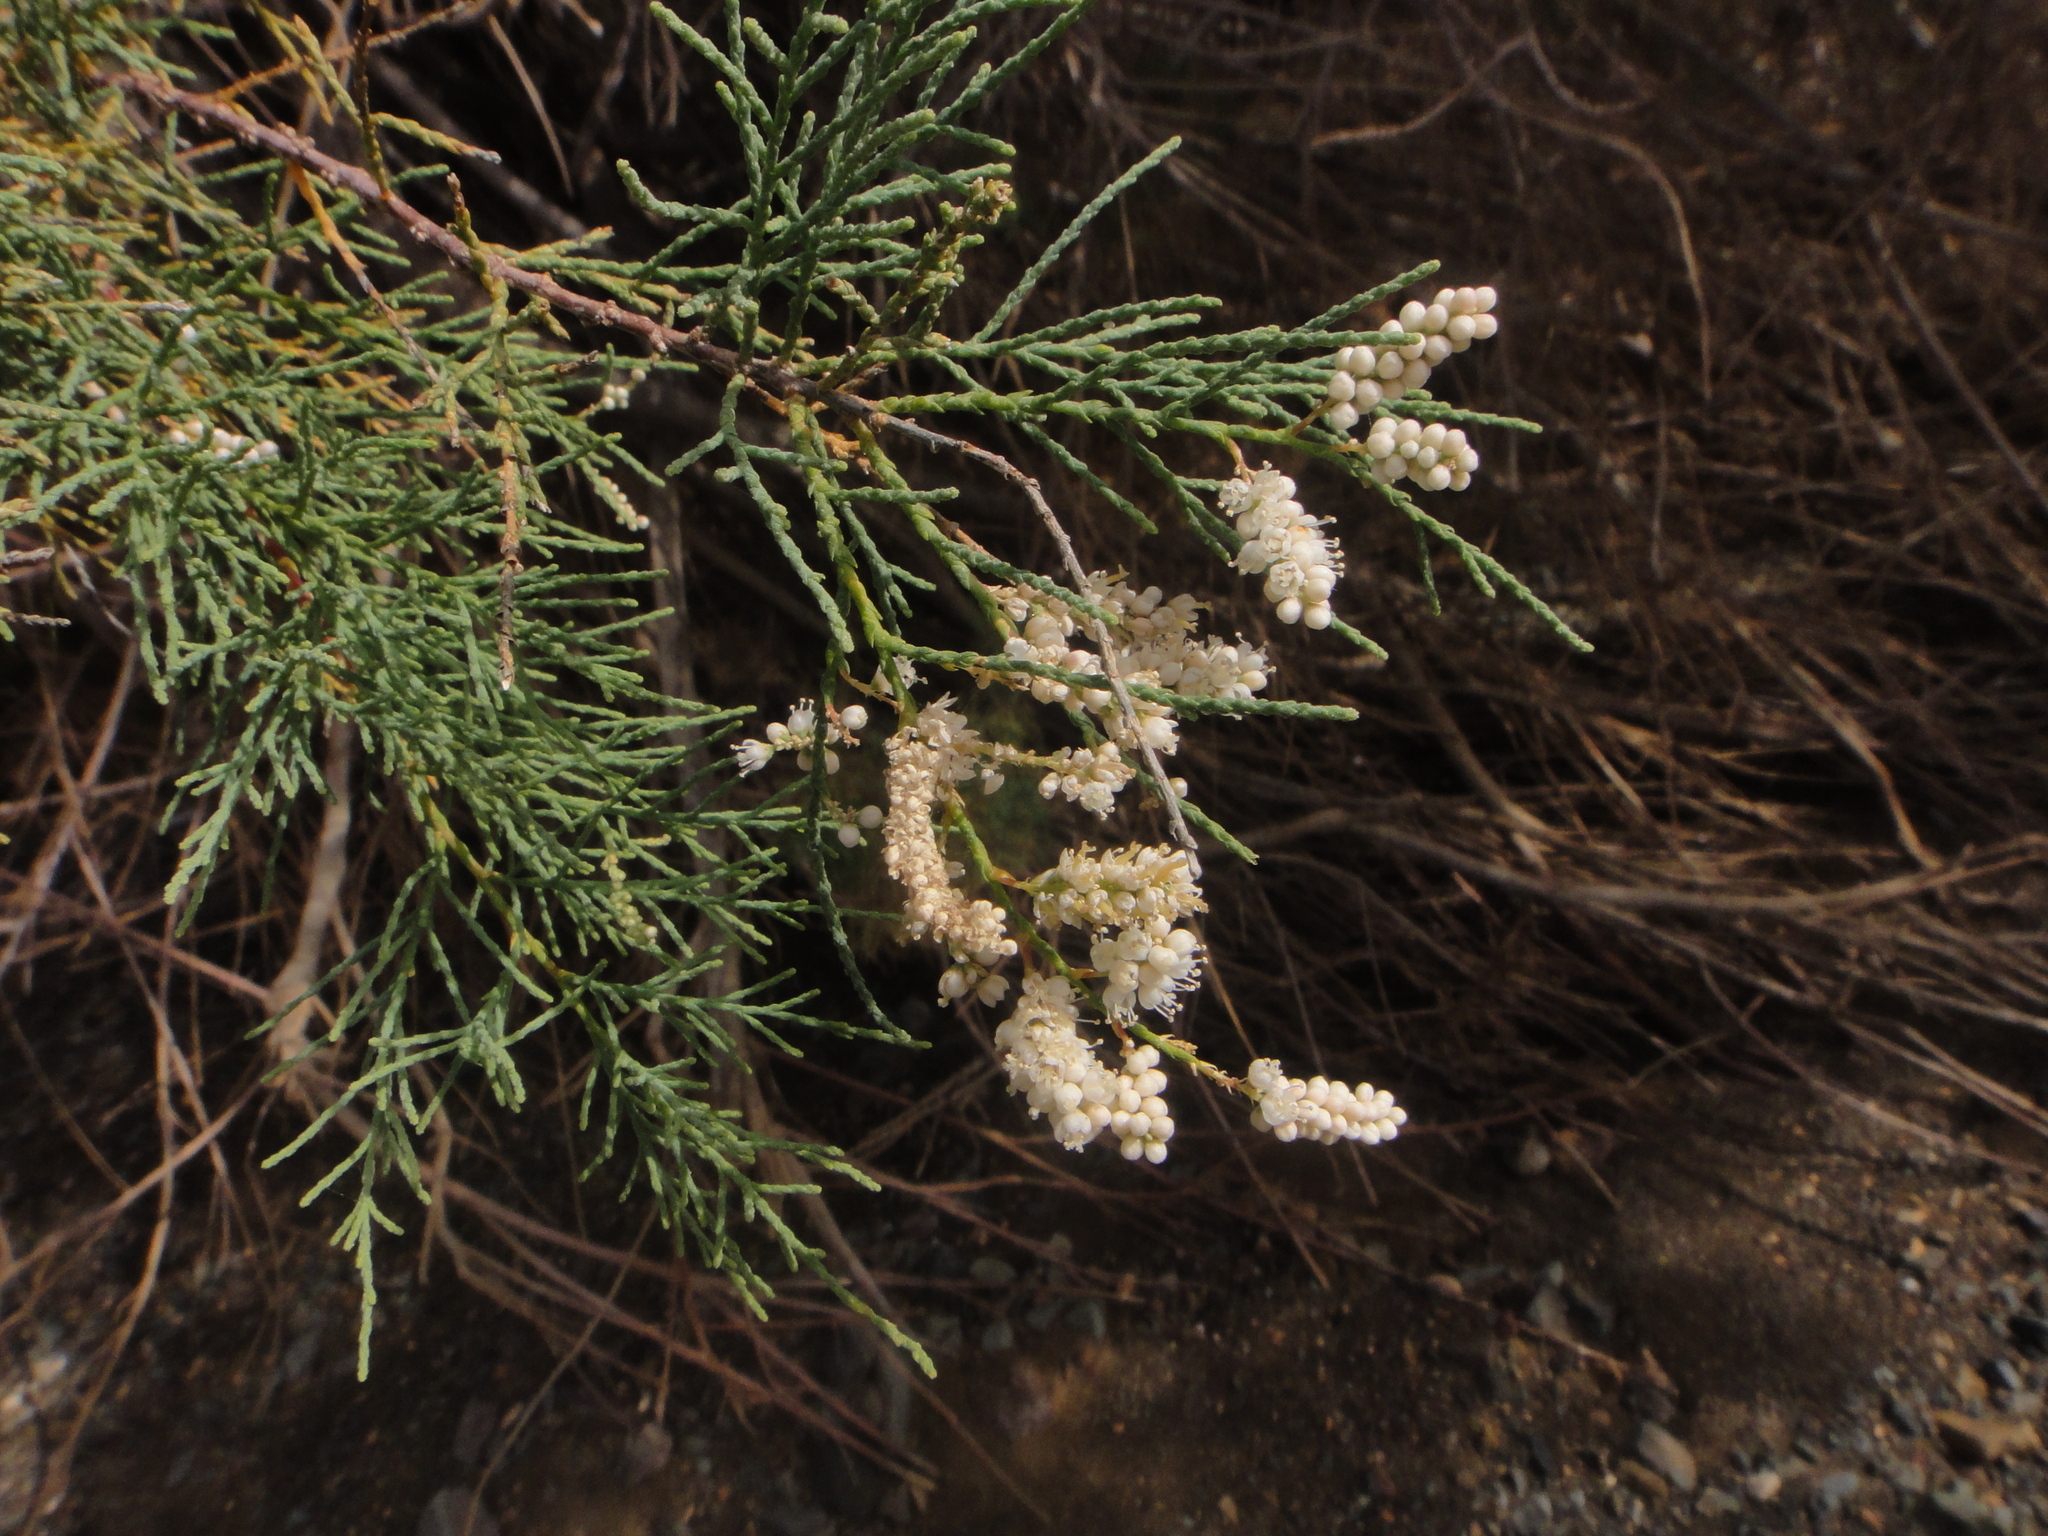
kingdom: Plantae
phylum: Tracheophyta
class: Magnoliopsida
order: Caryophyllales
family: Tamaricaceae
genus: Tamarix
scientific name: Tamarix canariensis
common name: Canary island tamarisk
